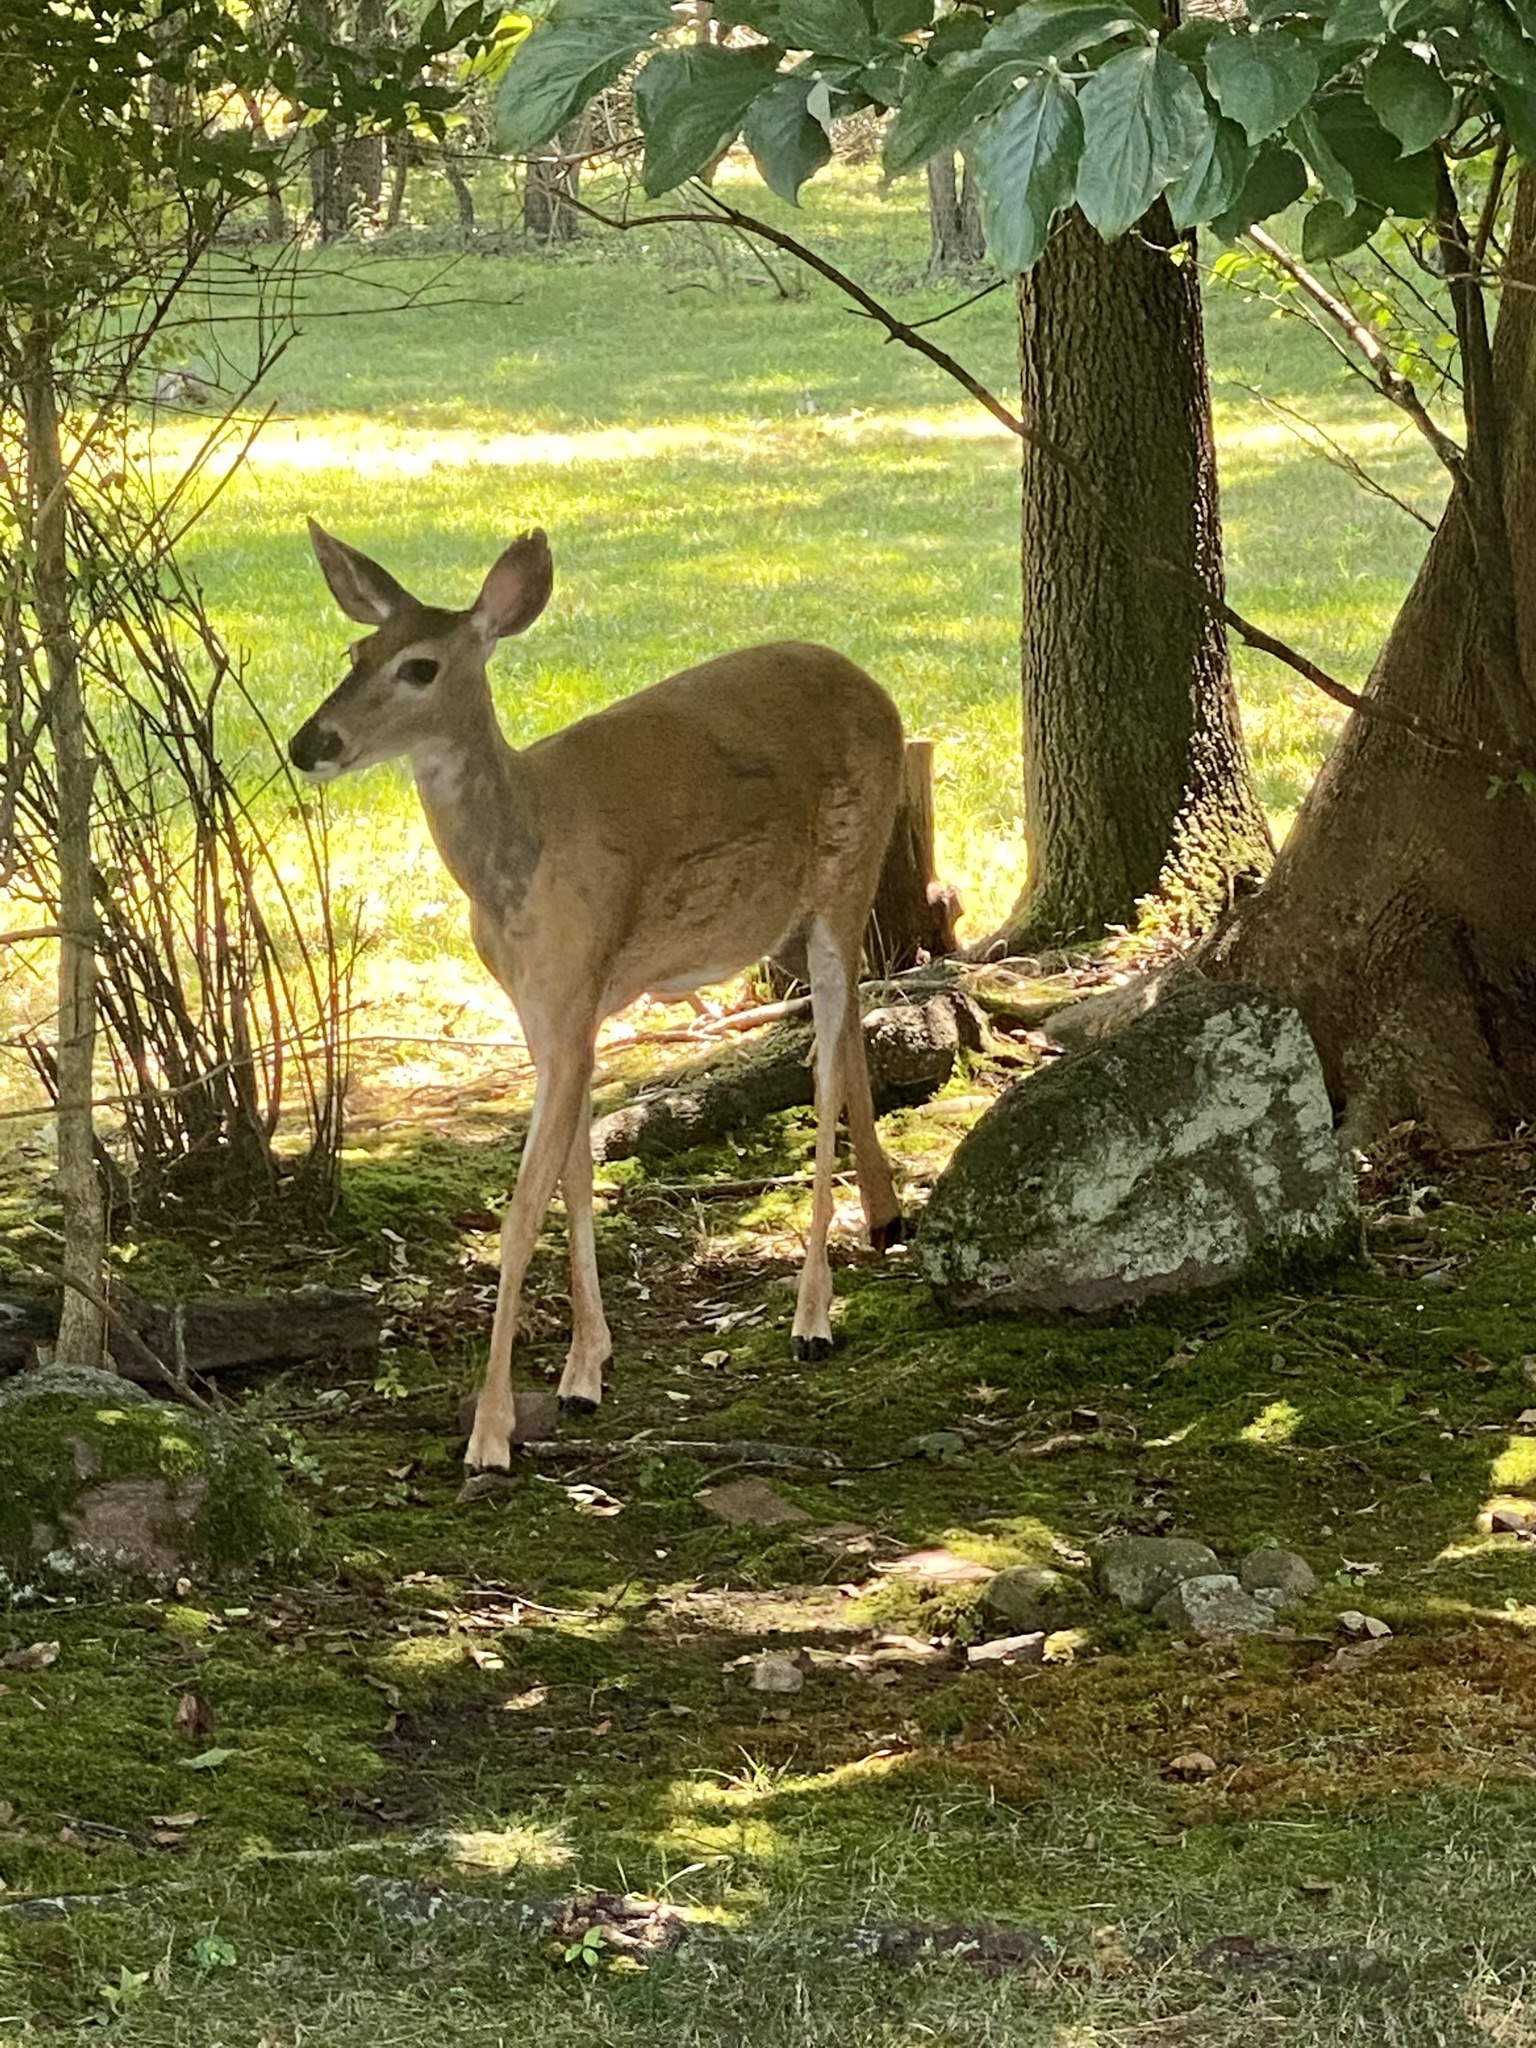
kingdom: Animalia
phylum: Chordata
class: Mammalia
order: Artiodactyla
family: Cervidae
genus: Odocoileus
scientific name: Odocoileus virginianus
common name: White-tailed deer
